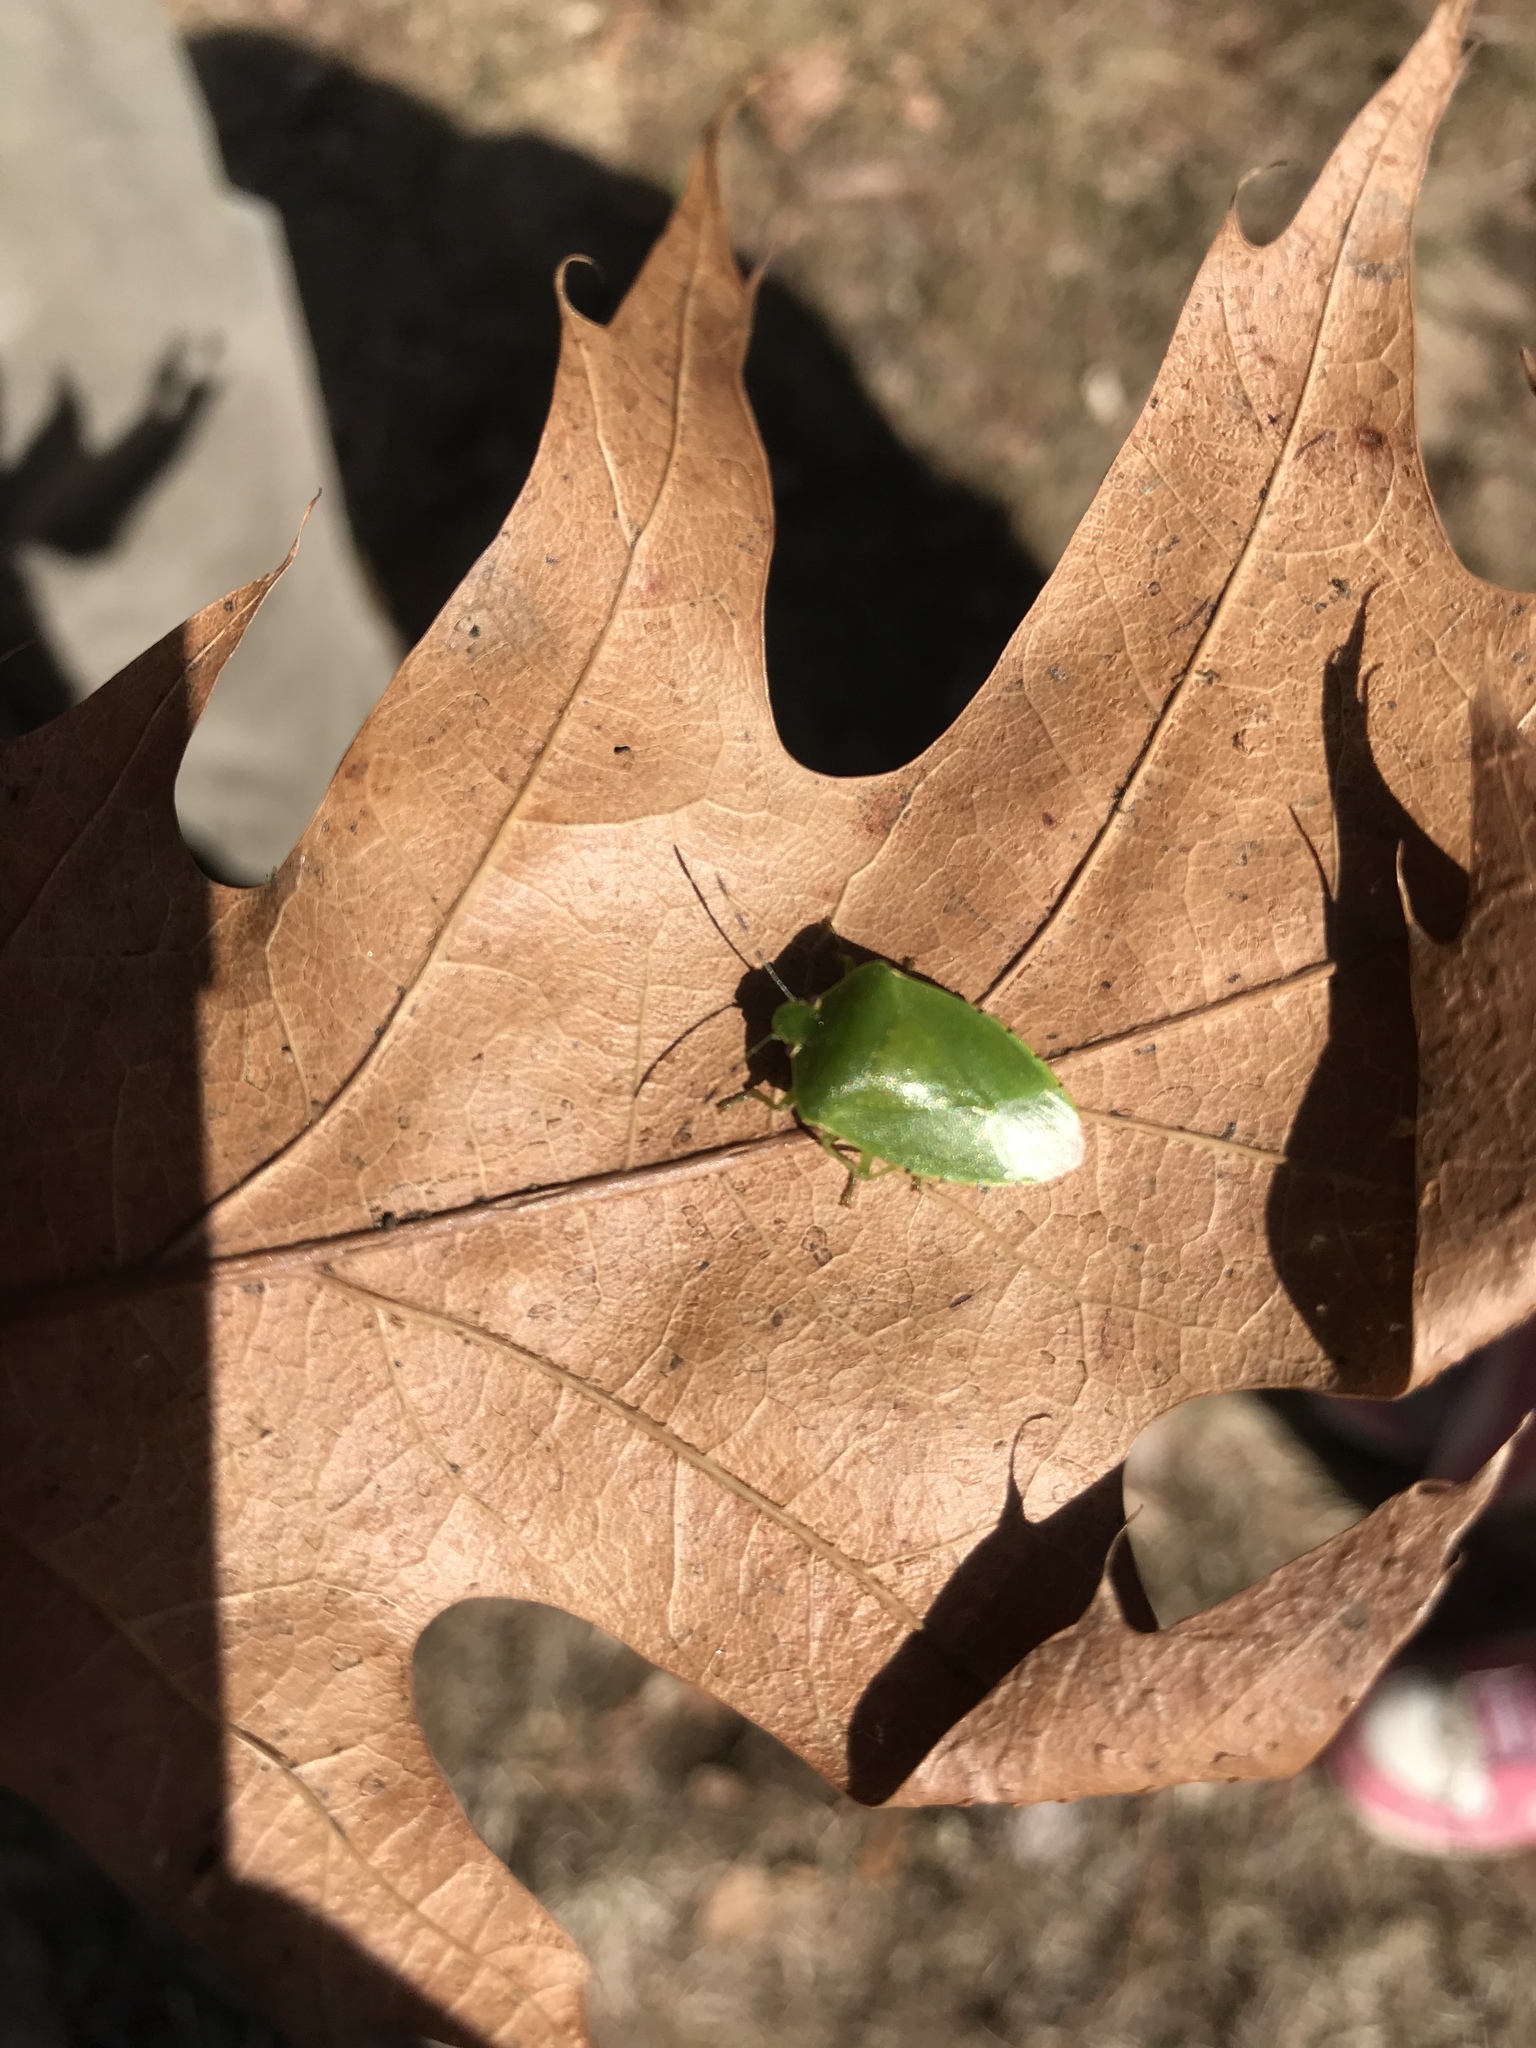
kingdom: Animalia
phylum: Arthropoda
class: Insecta
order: Hemiptera
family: Pentatomidae
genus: Chinavia
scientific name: Chinavia hilaris
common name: Green stink bug
